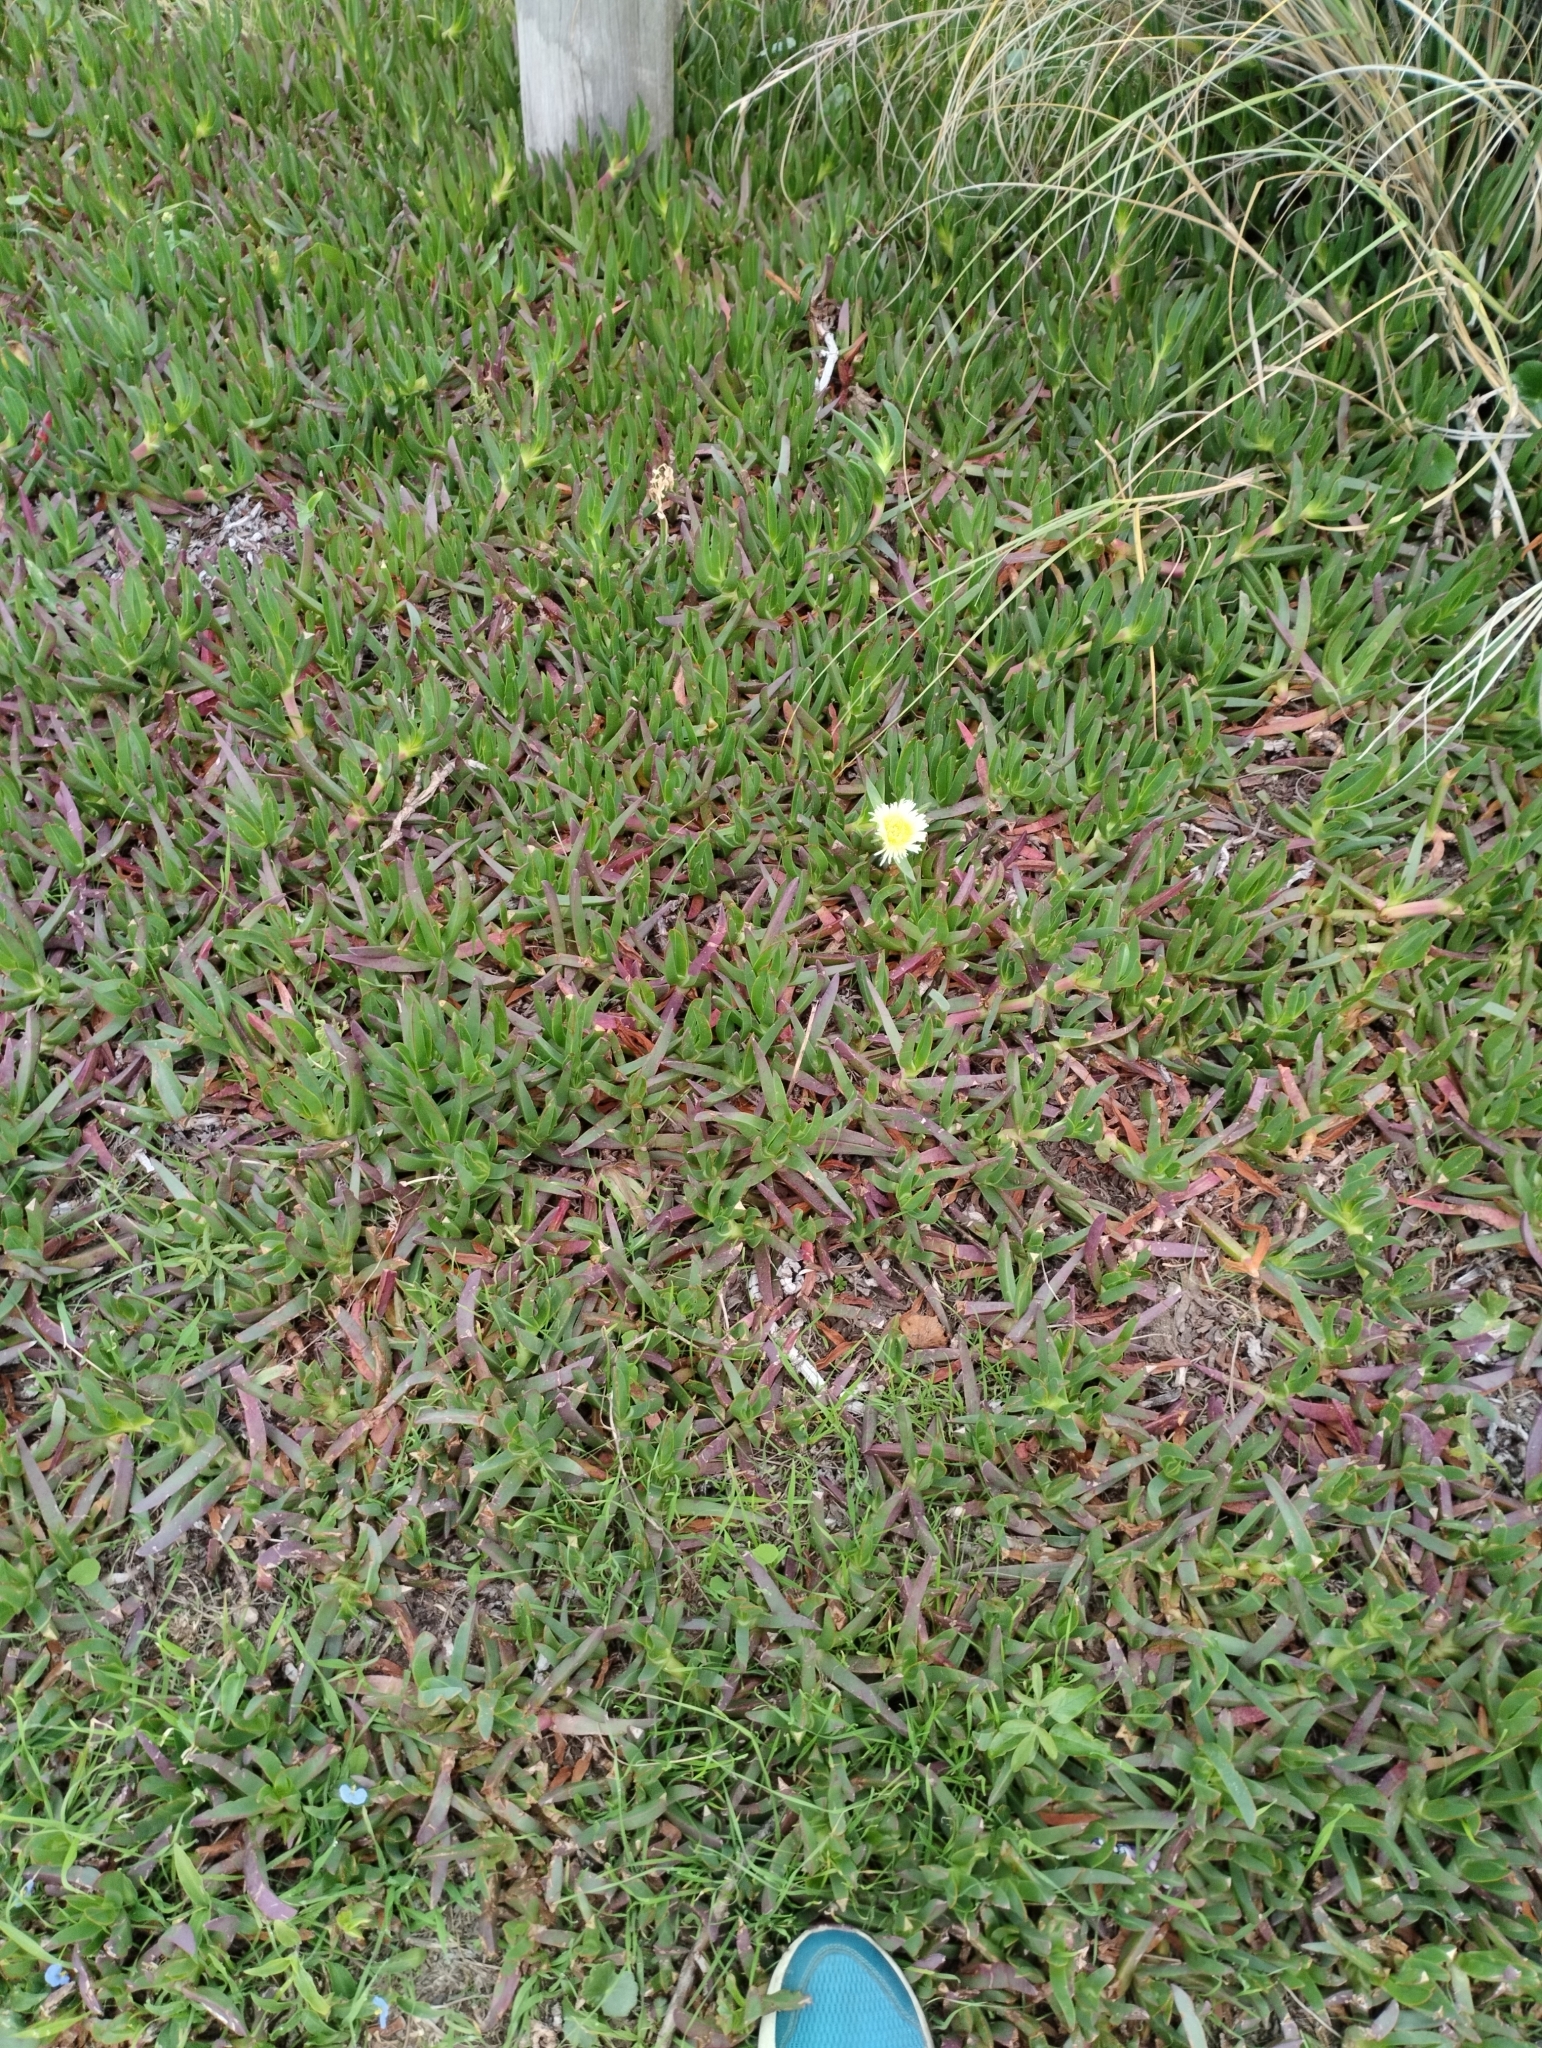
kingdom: Plantae
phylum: Tracheophyta
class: Magnoliopsida
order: Caryophyllales
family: Aizoaceae
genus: Carpobrotus
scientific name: Carpobrotus edulis
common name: Hottentot-fig
